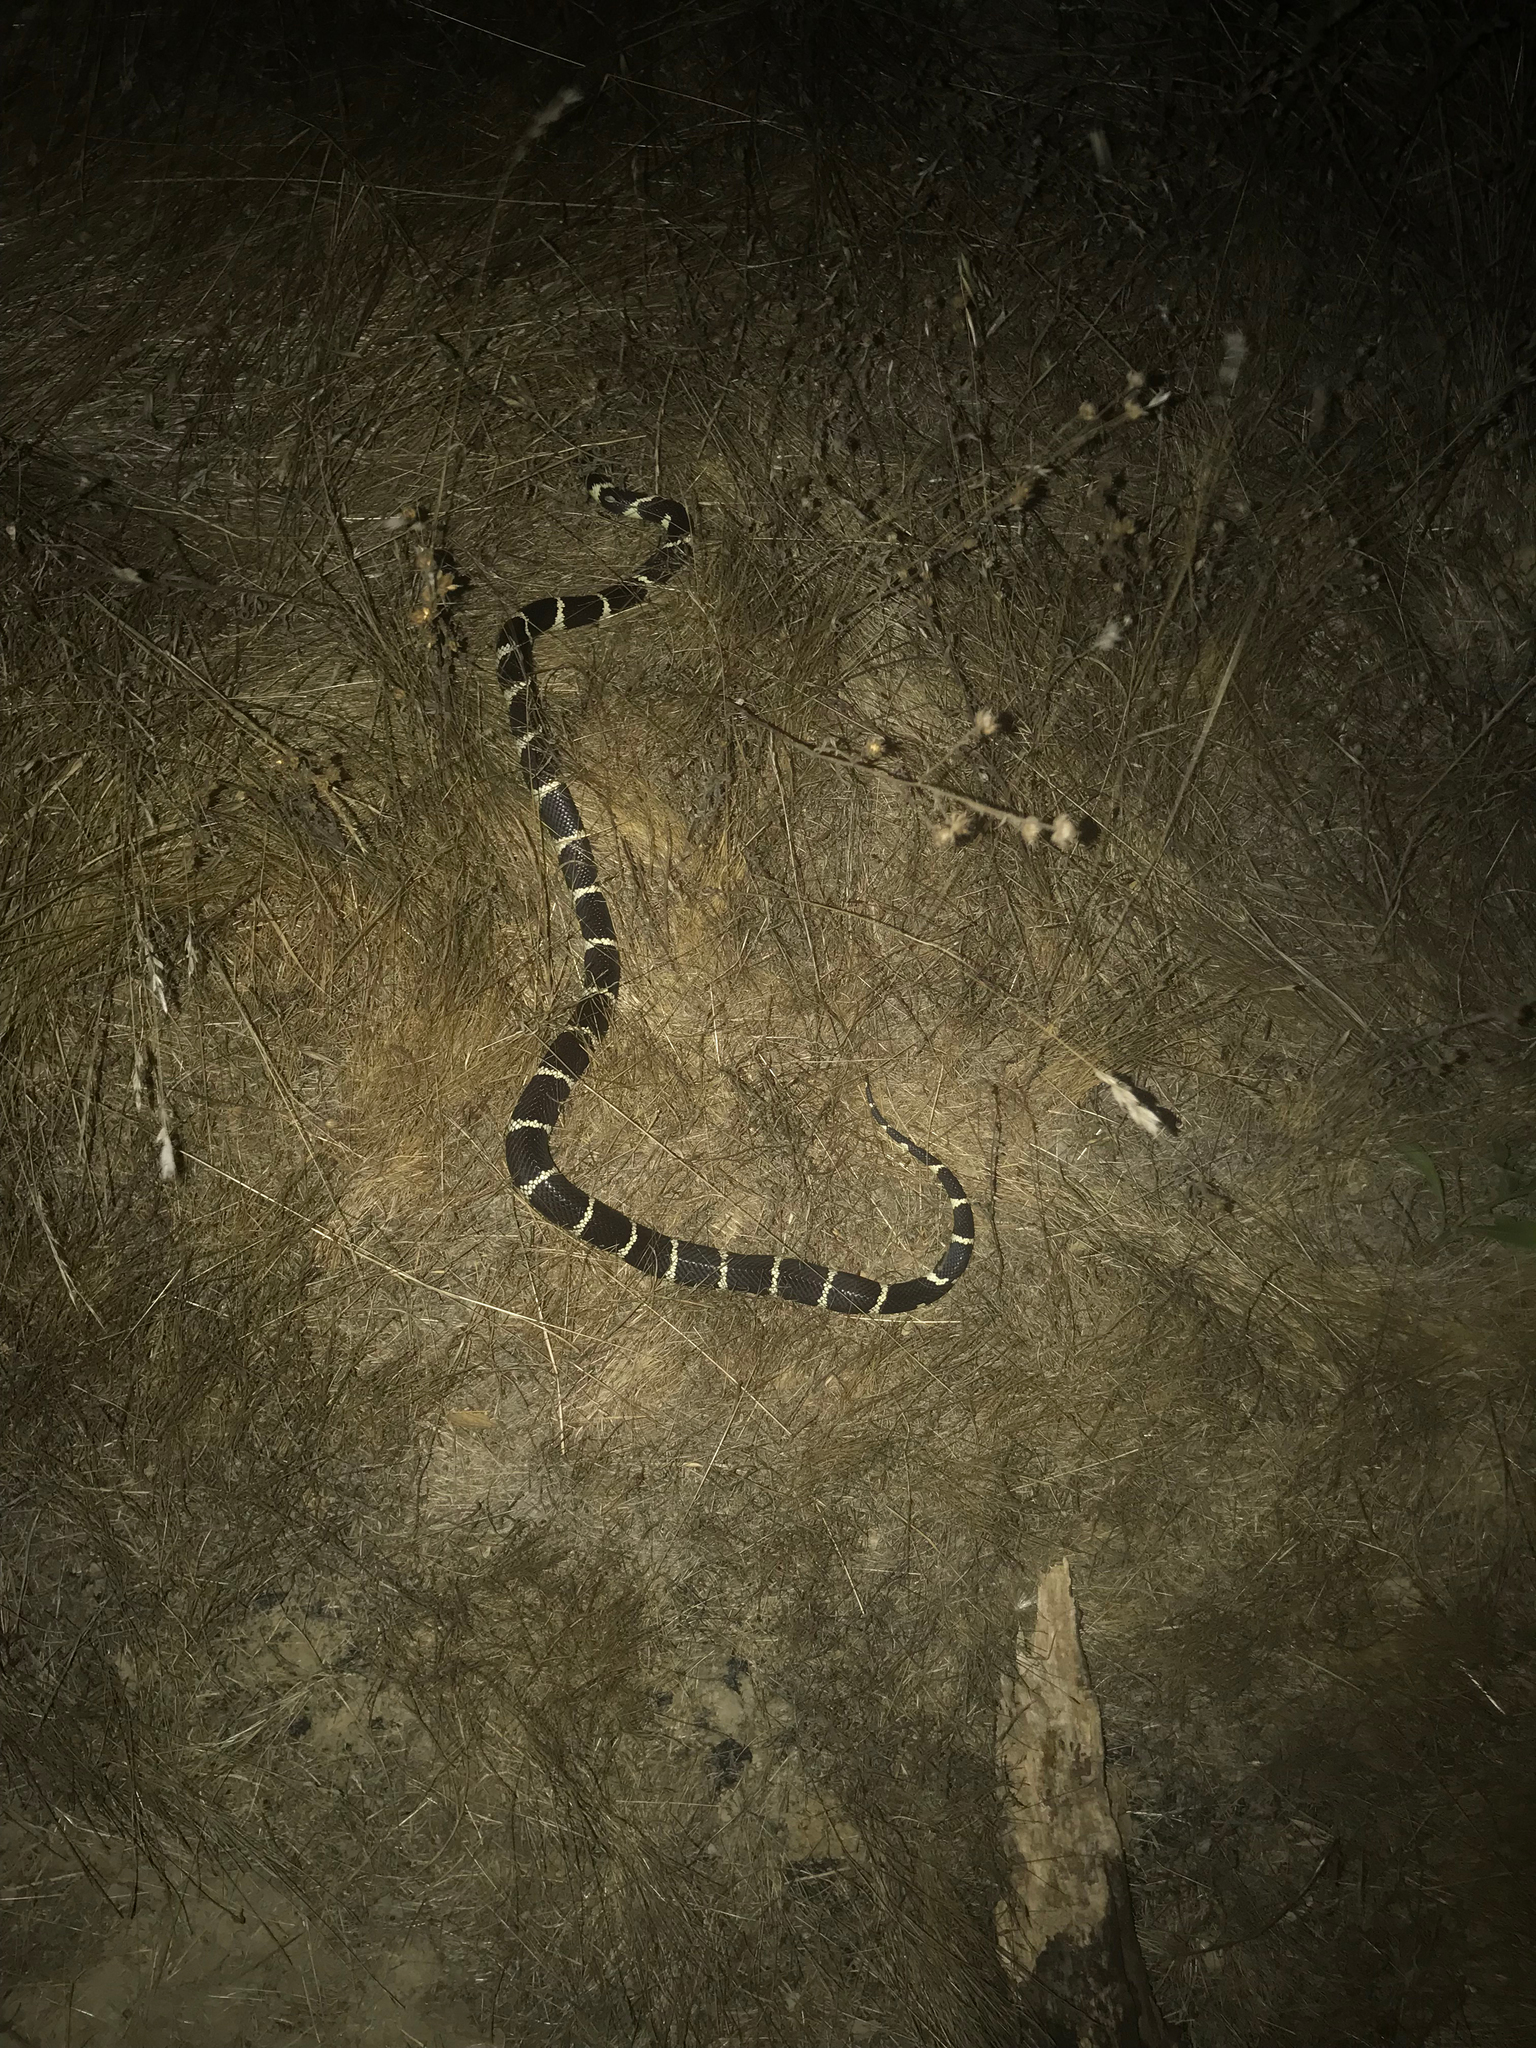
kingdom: Animalia
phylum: Chordata
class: Squamata
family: Colubridae
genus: Lampropeltis
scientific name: Lampropeltis californiae
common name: California kingsnake
